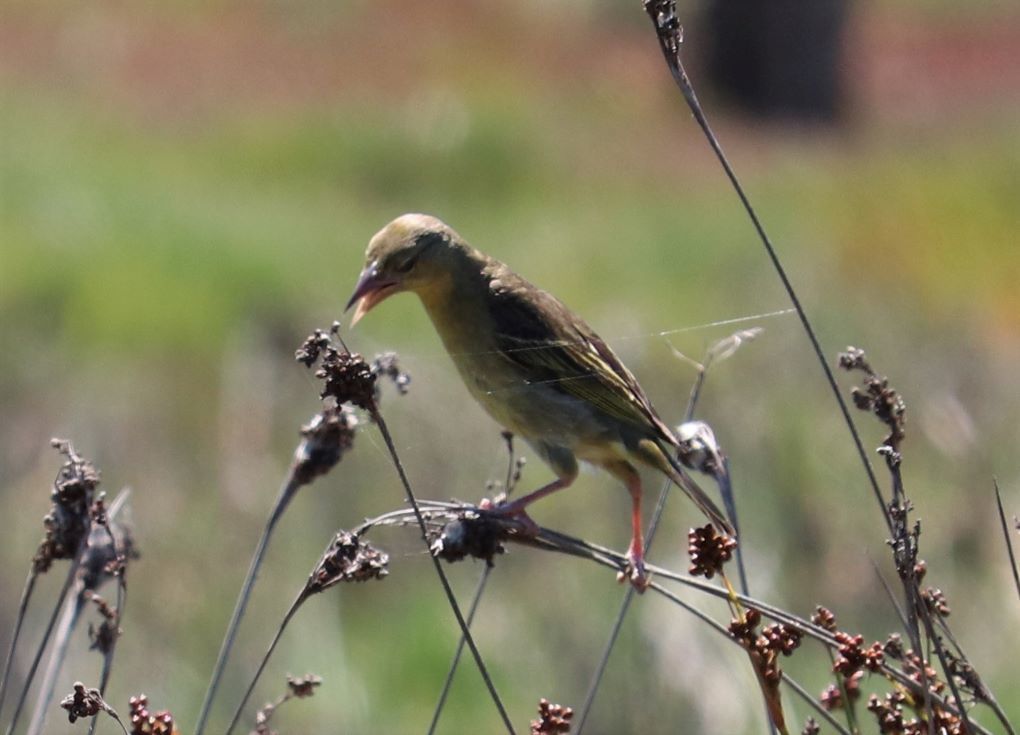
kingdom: Animalia
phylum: Chordata
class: Aves
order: Passeriformes
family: Ploceidae
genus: Ploceus
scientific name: Ploceus capensis
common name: Cape weaver
